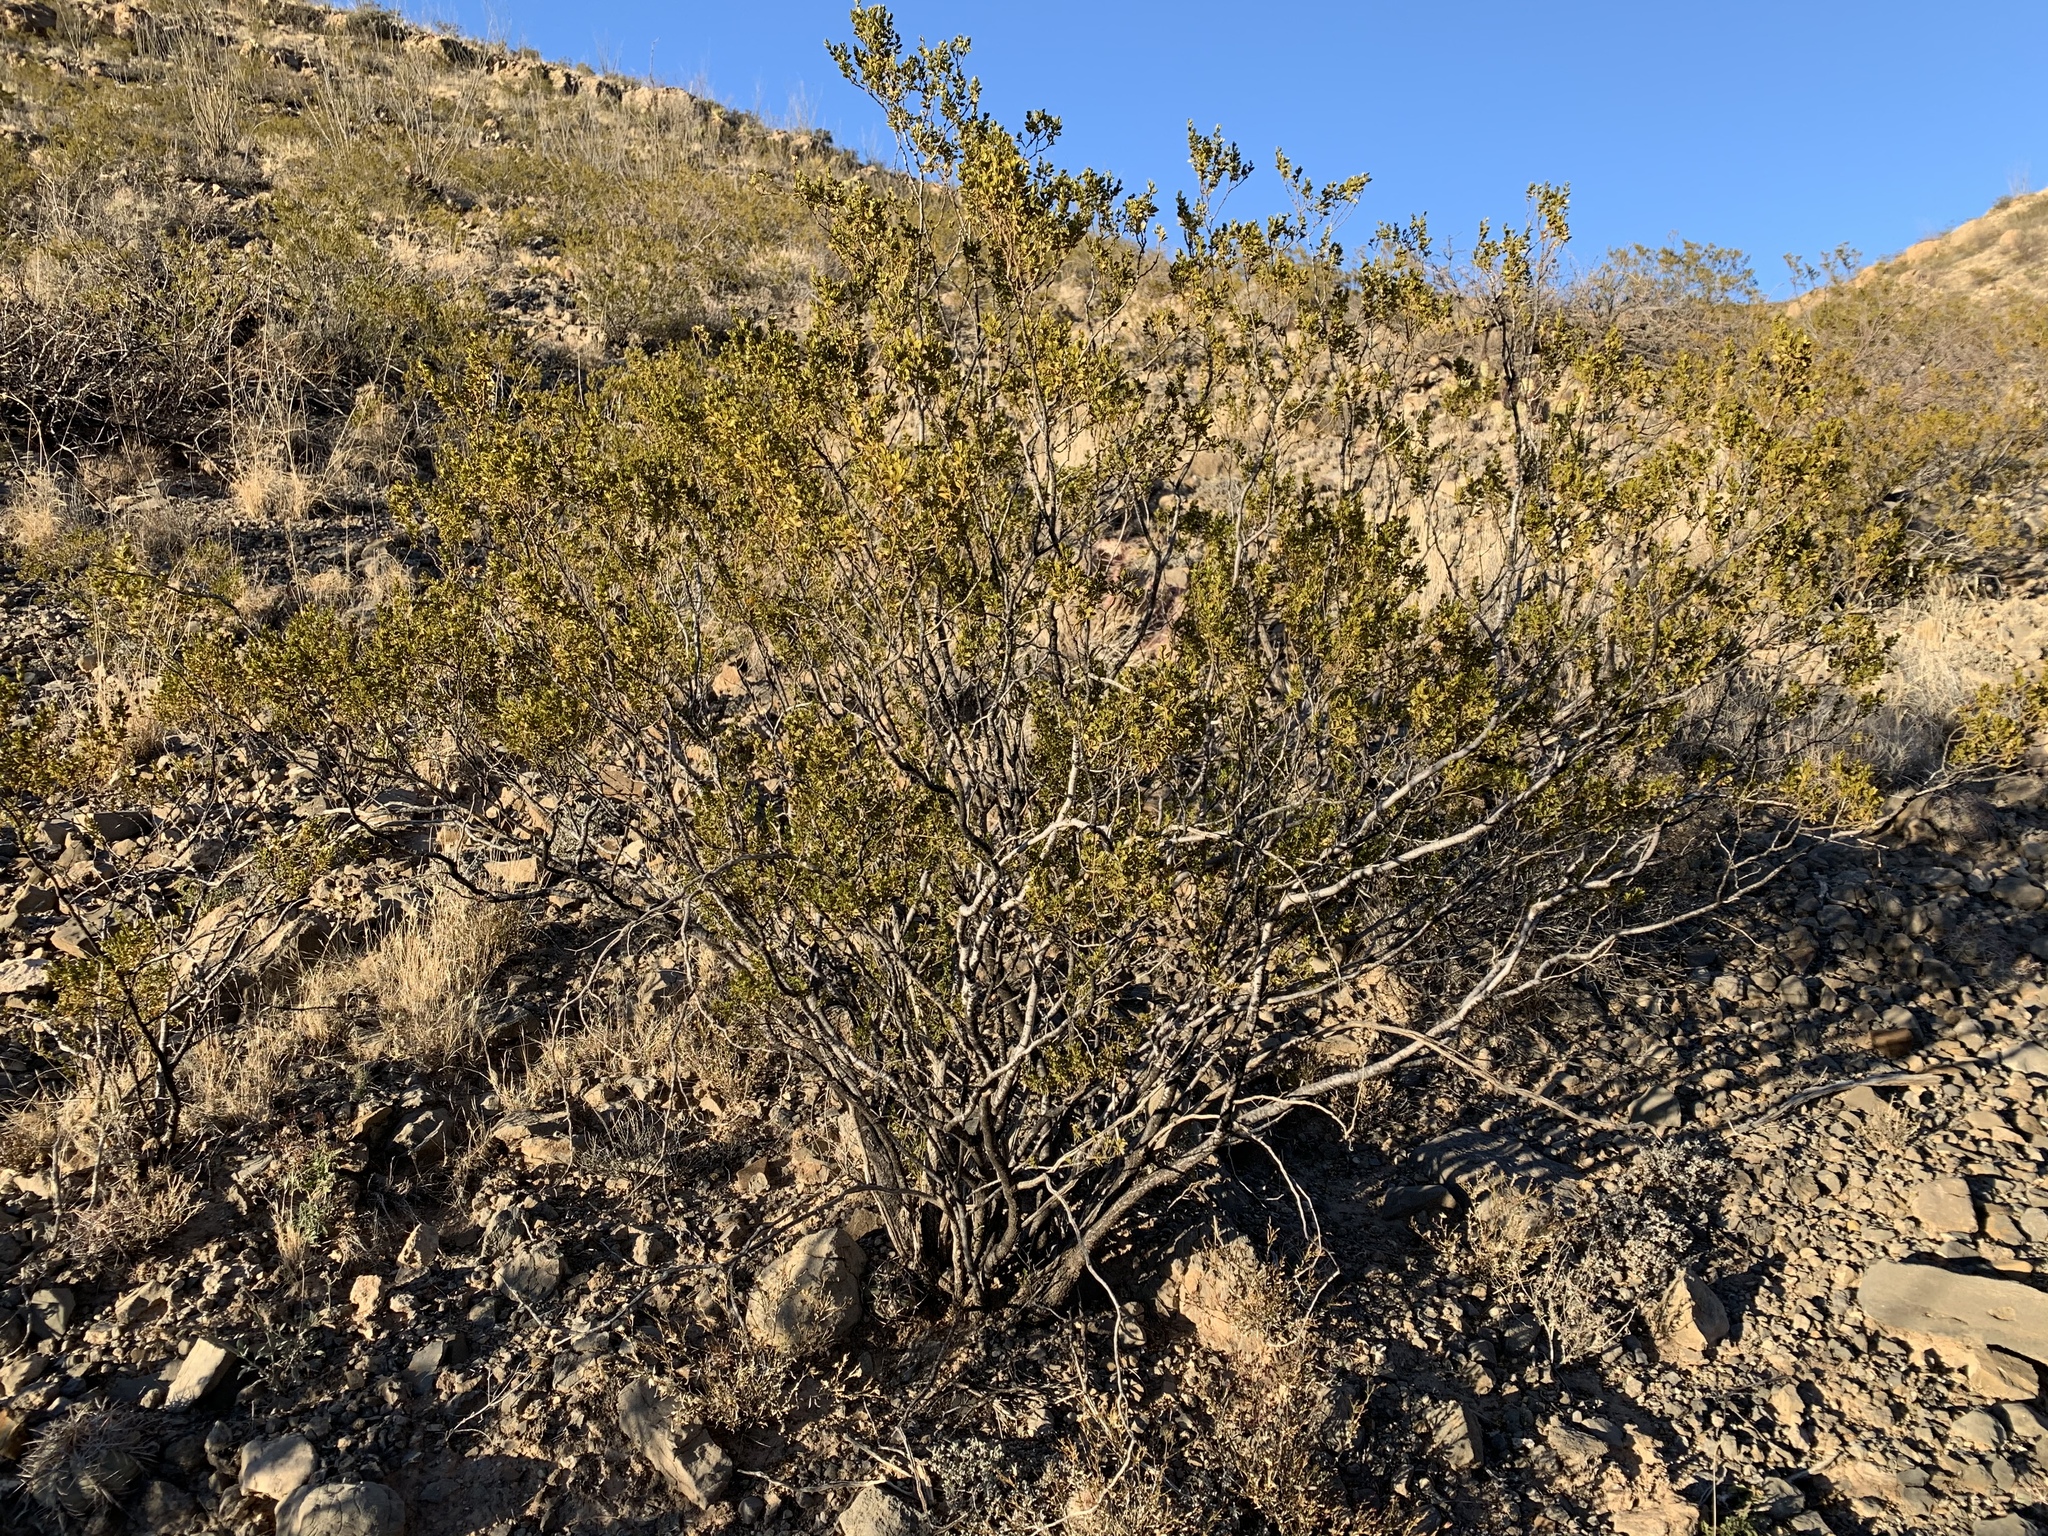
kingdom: Plantae
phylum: Tracheophyta
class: Magnoliopsida
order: Zygophyllales
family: Zygophyllaceae
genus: Larrea
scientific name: Larrea tridentata
